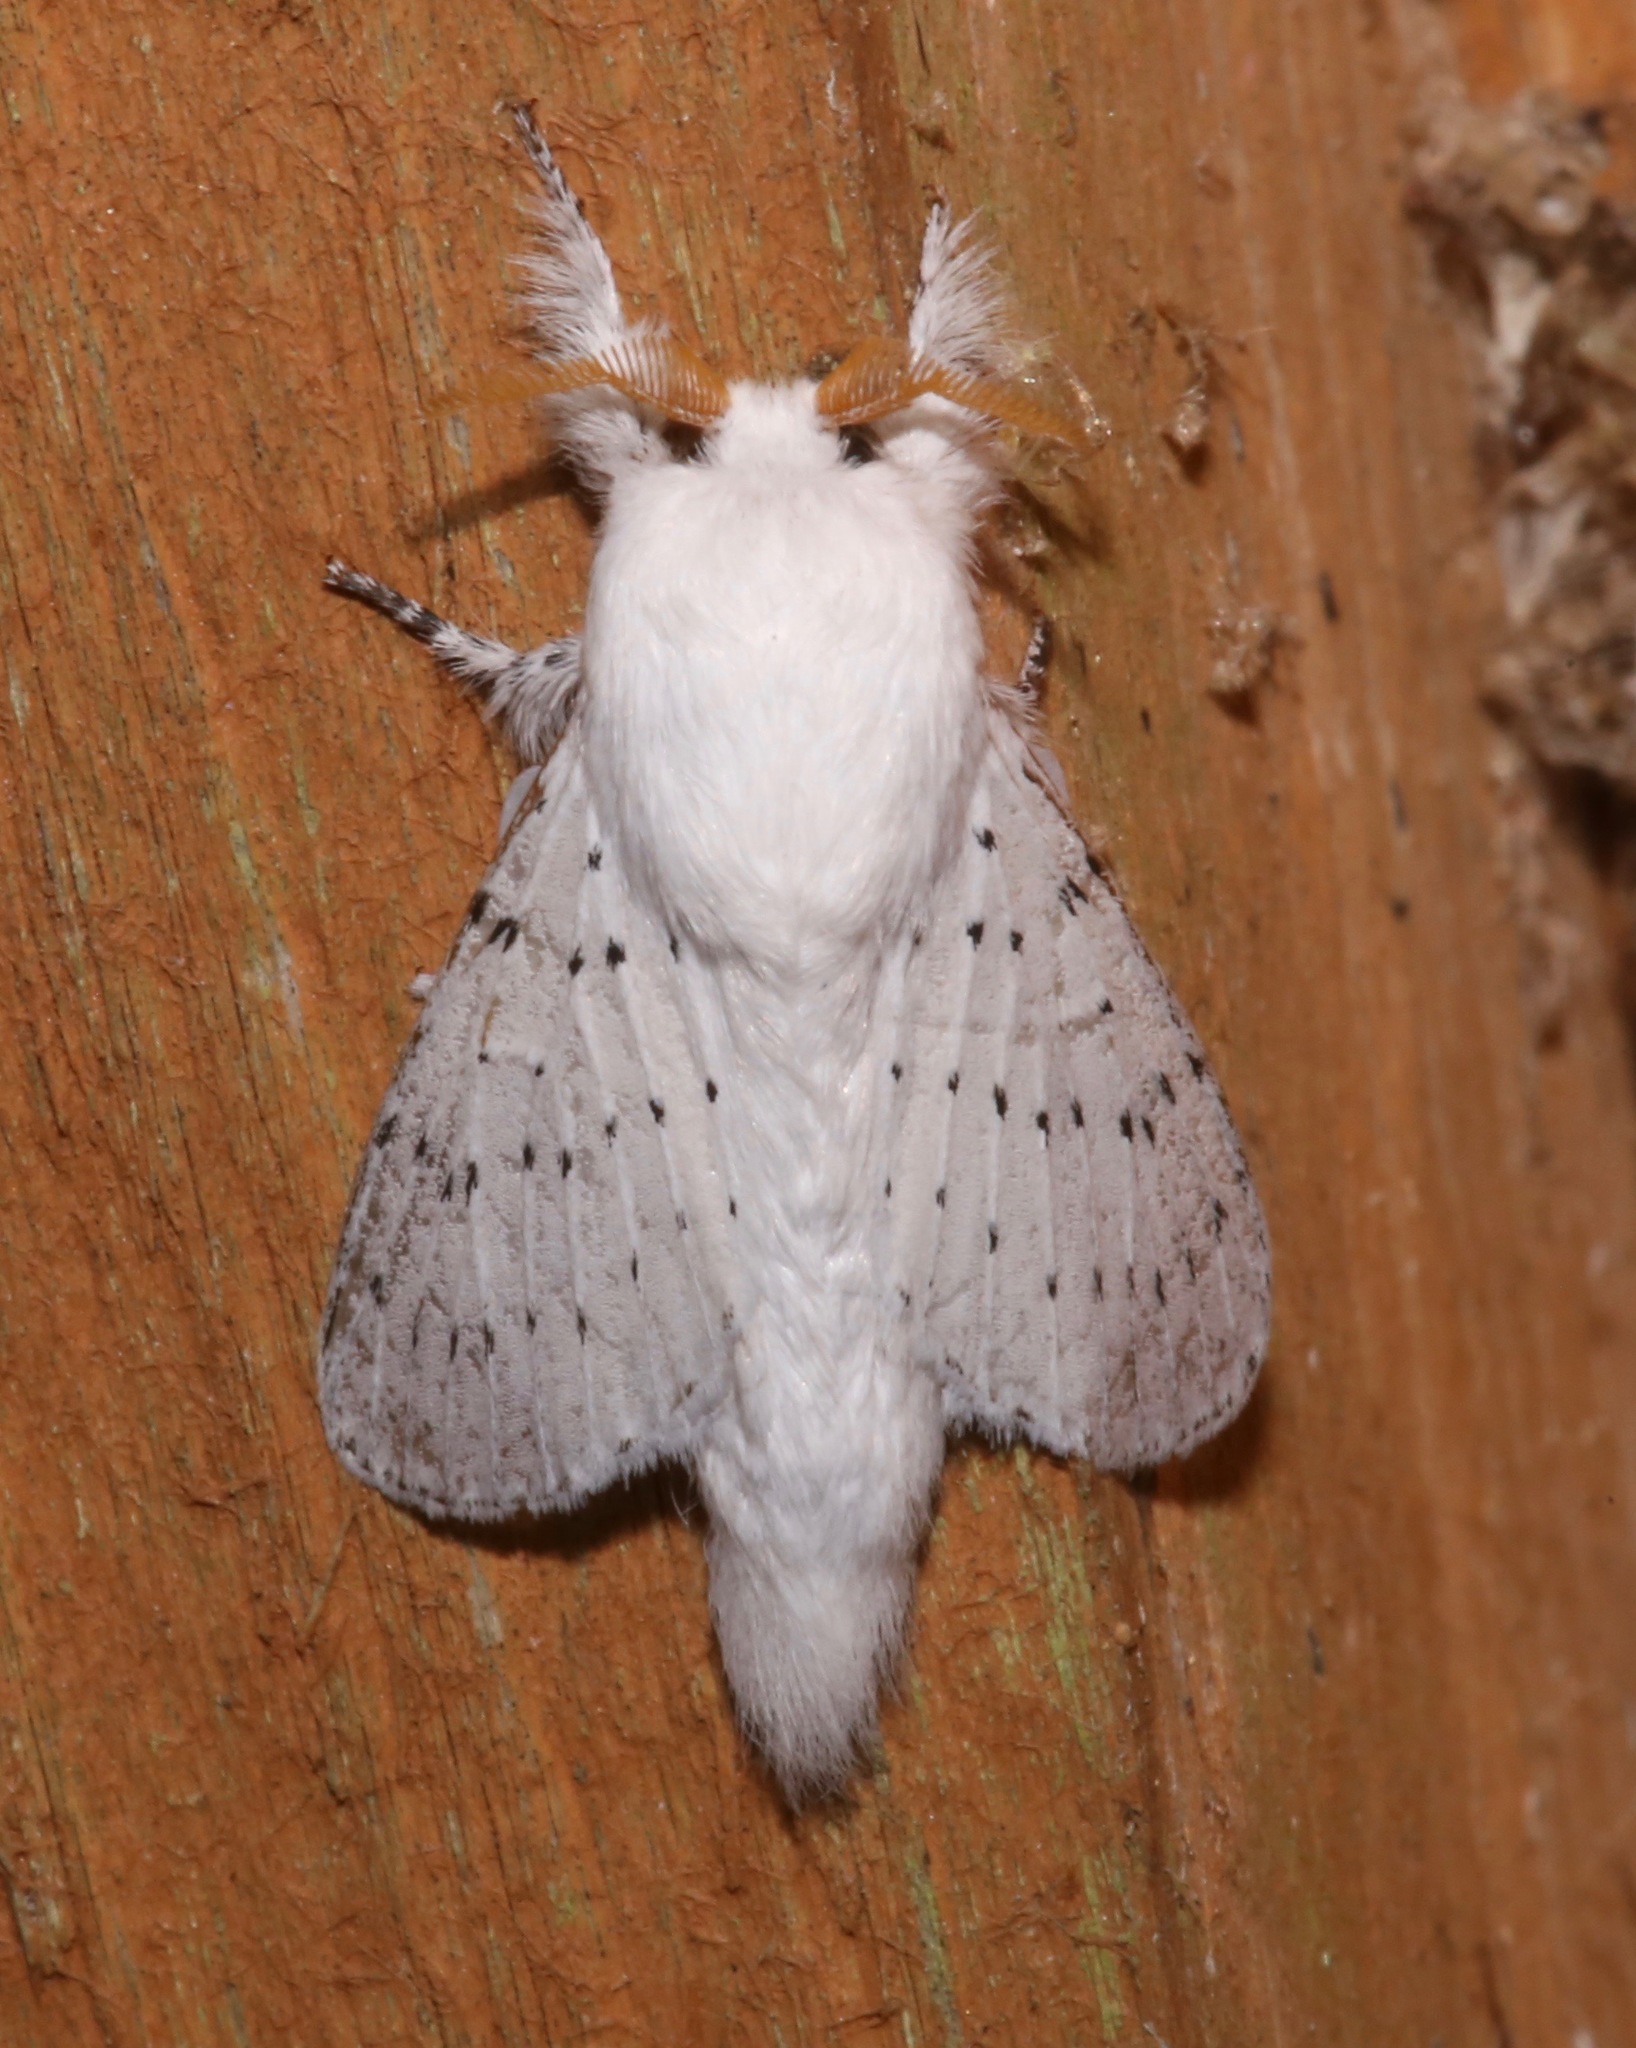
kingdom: Animalia
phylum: Arthropoda
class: Insecta
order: Lepidoptera
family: Lasiocampidae
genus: Artace
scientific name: Artace cribrarius
